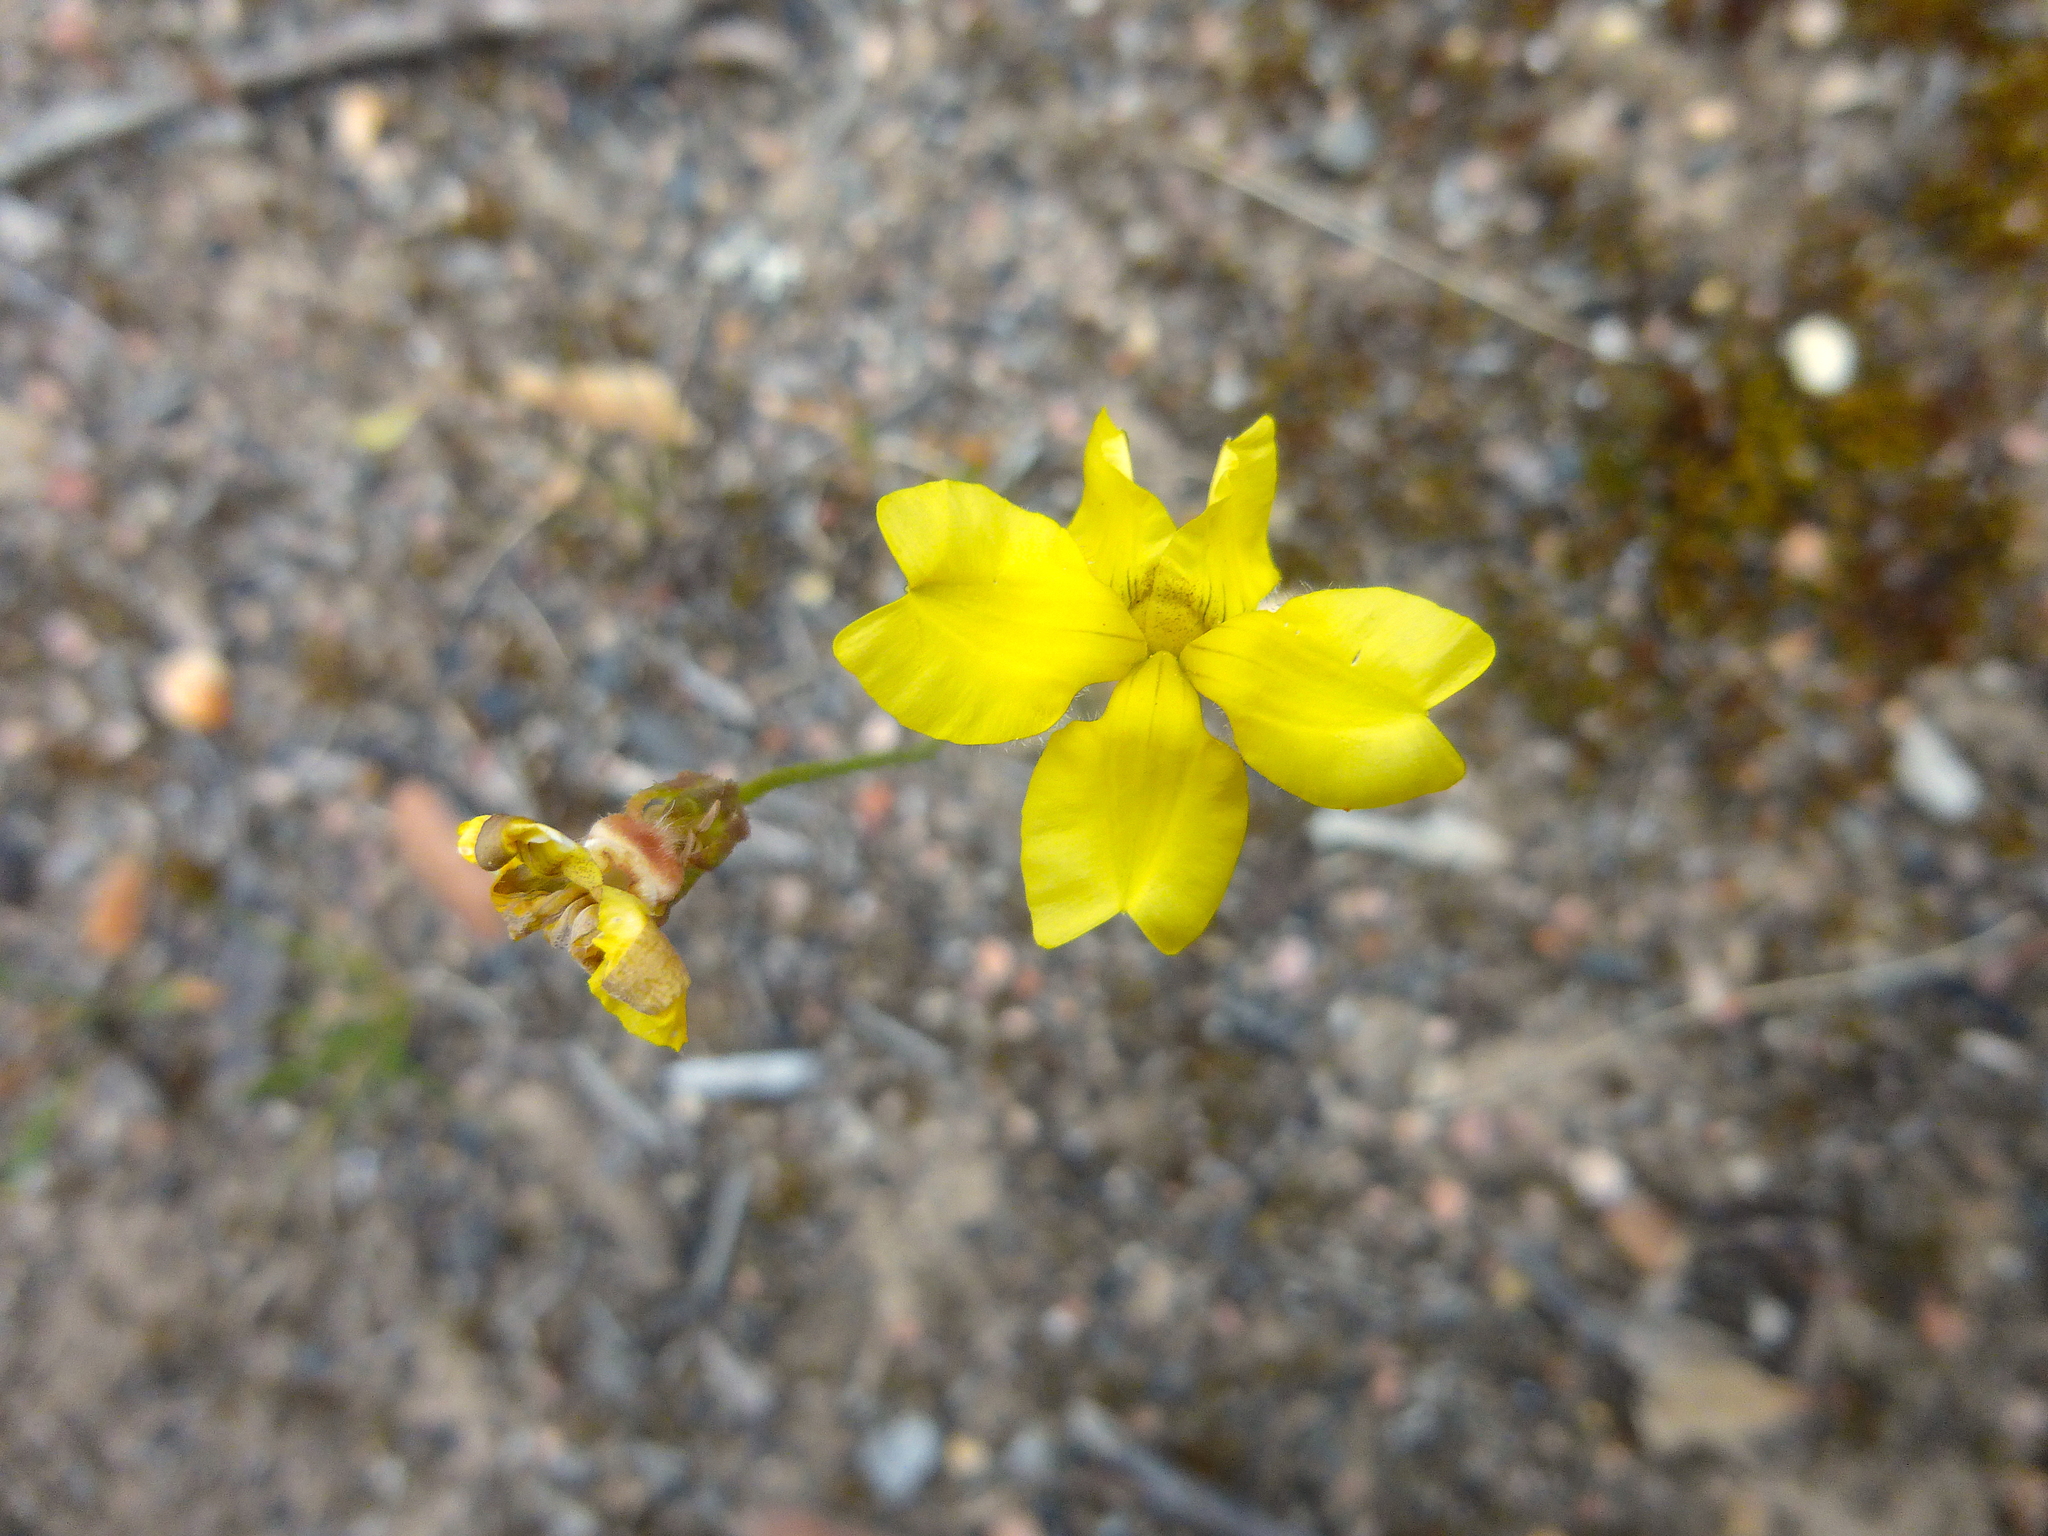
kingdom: Plantae
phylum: Tracheophyta
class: Magnoliopsida
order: Asterales
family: Goodeniaceae
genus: Goodenia
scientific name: Goodenia pinnatifida
